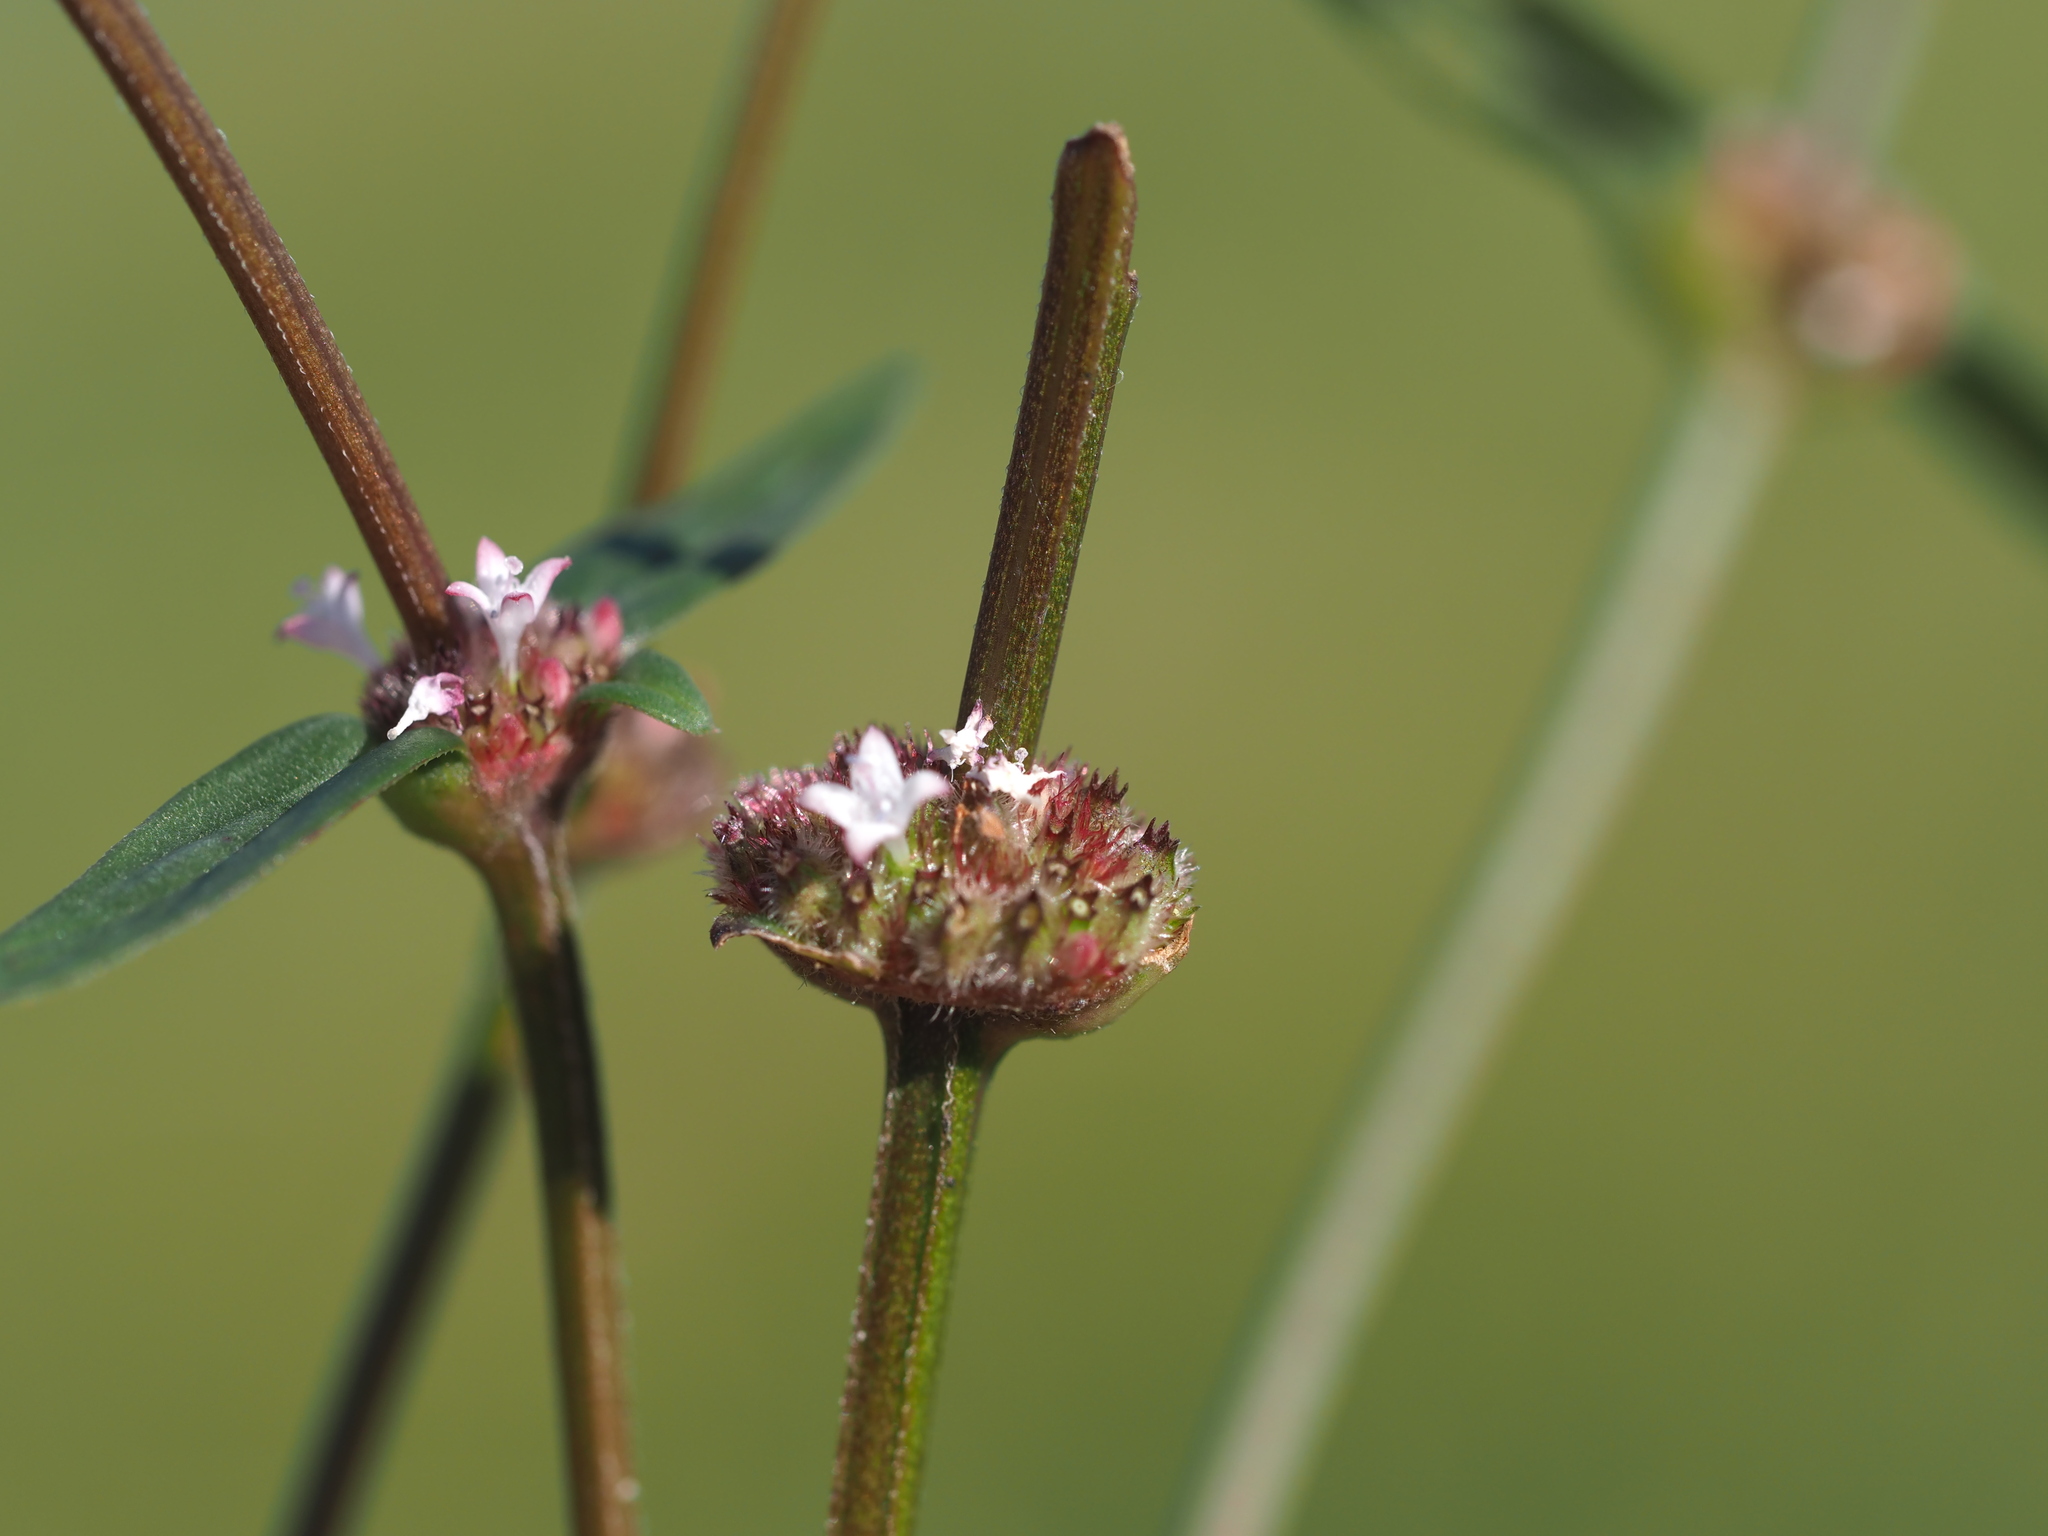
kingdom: Plantae
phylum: Tracheophyta
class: Magnoliopsida
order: Gentianales
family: Rubiaceae
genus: Spermacoce
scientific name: Spermacoce remota
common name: Woodland false buttonweed
